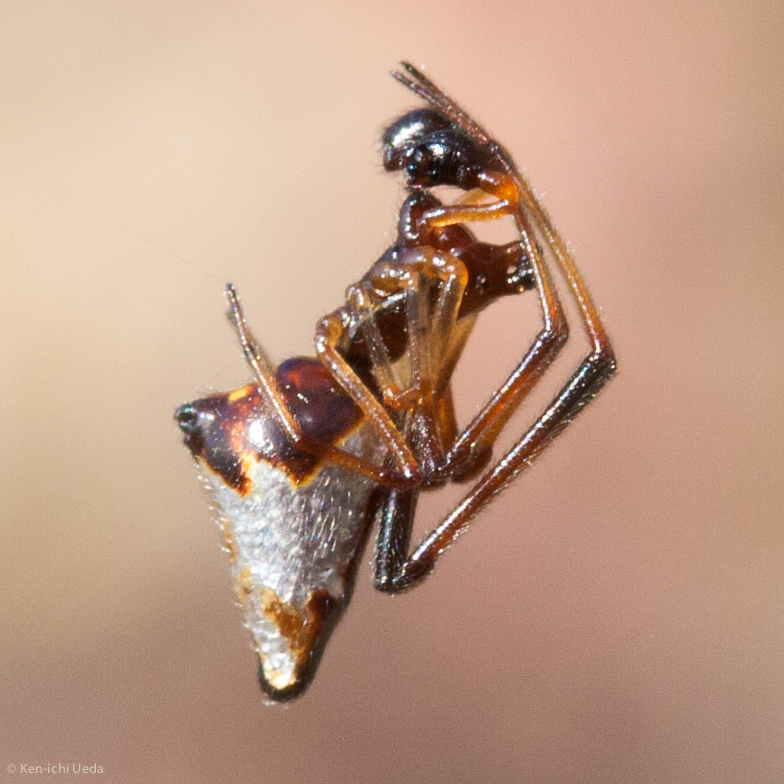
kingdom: Animalia
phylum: Arthropoda
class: Arachnida
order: Araneae
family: Theridiidae
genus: Argyrodes
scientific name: Argyrodes elevatus
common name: Cobweb spiders
